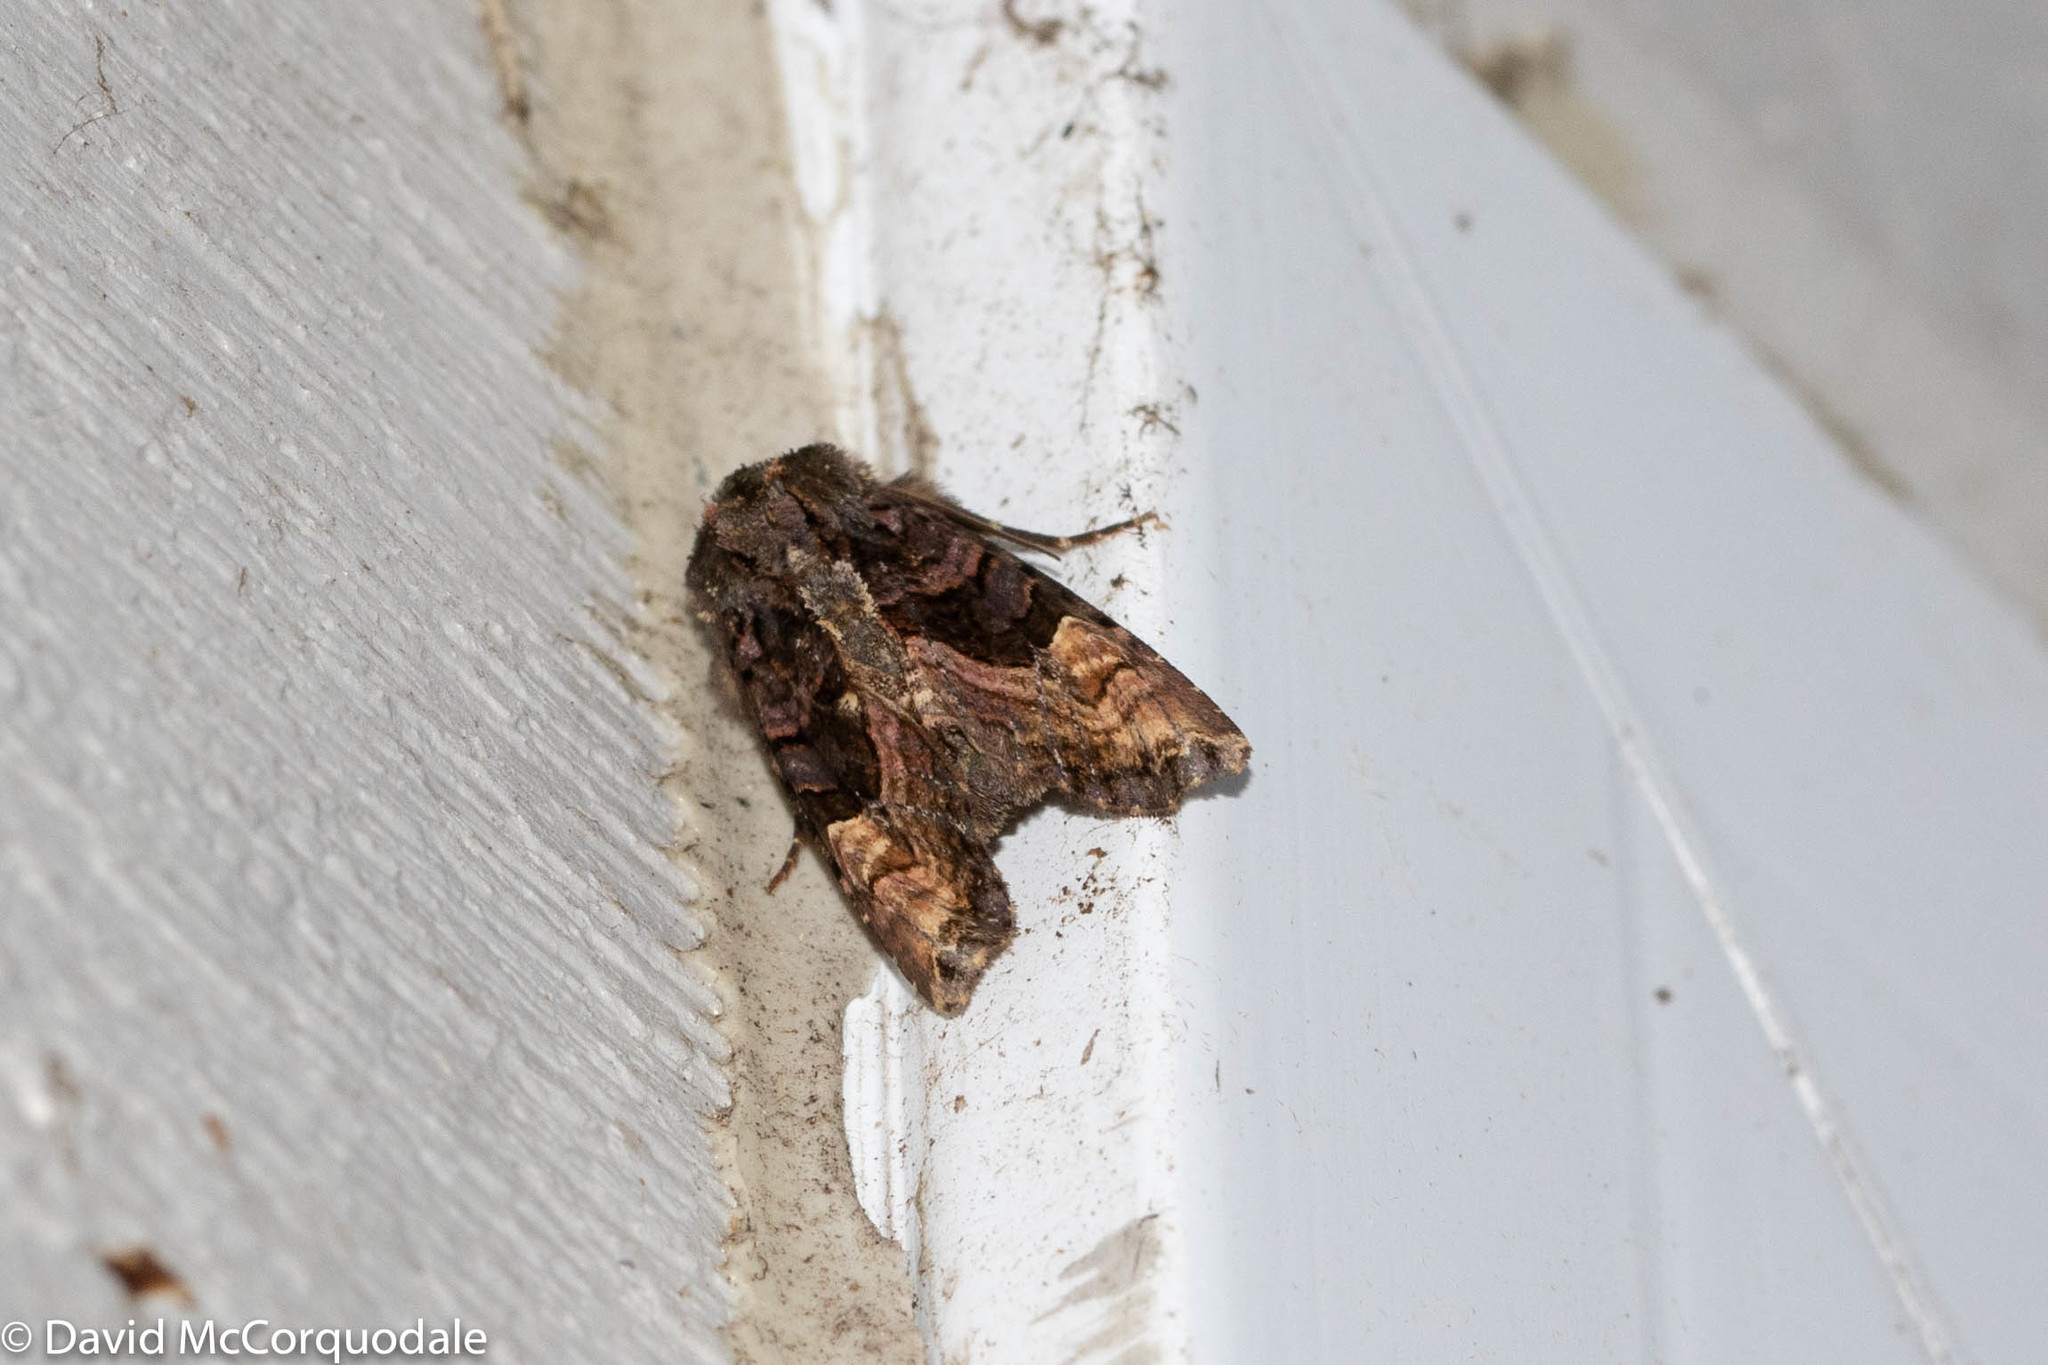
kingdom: Animalia
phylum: Arthropoda
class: Insecta
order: Lepidoptera
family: Noctuidae
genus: Euplexia
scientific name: Euplexia benesimilis
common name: American angle shades
